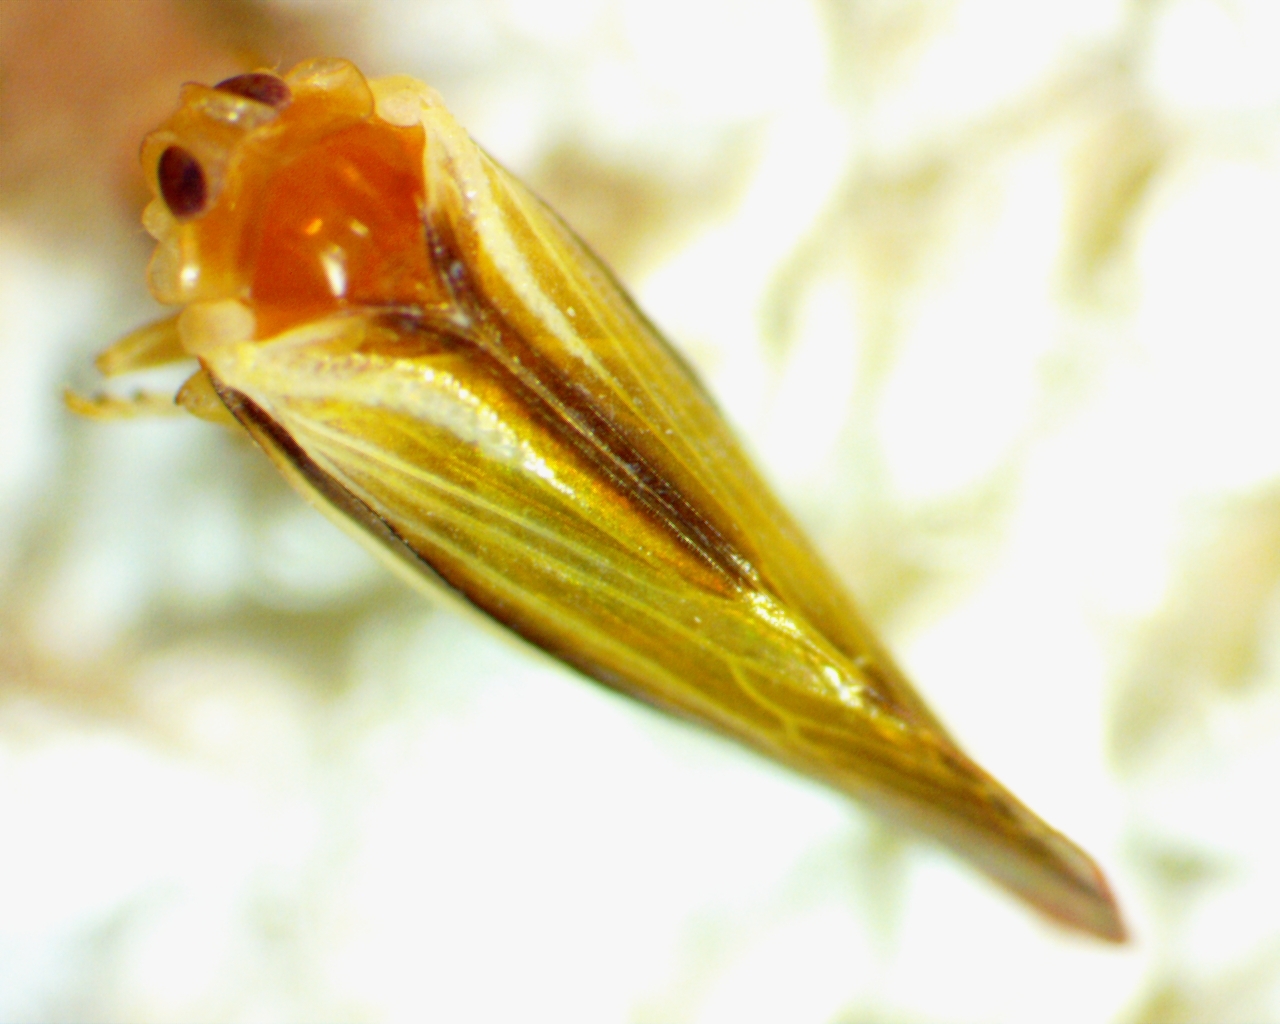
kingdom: Animalia
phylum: Arthropoda
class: Insecta
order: Hemiptera
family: Derbidae
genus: Omolicna
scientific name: Omolicna uhleri
